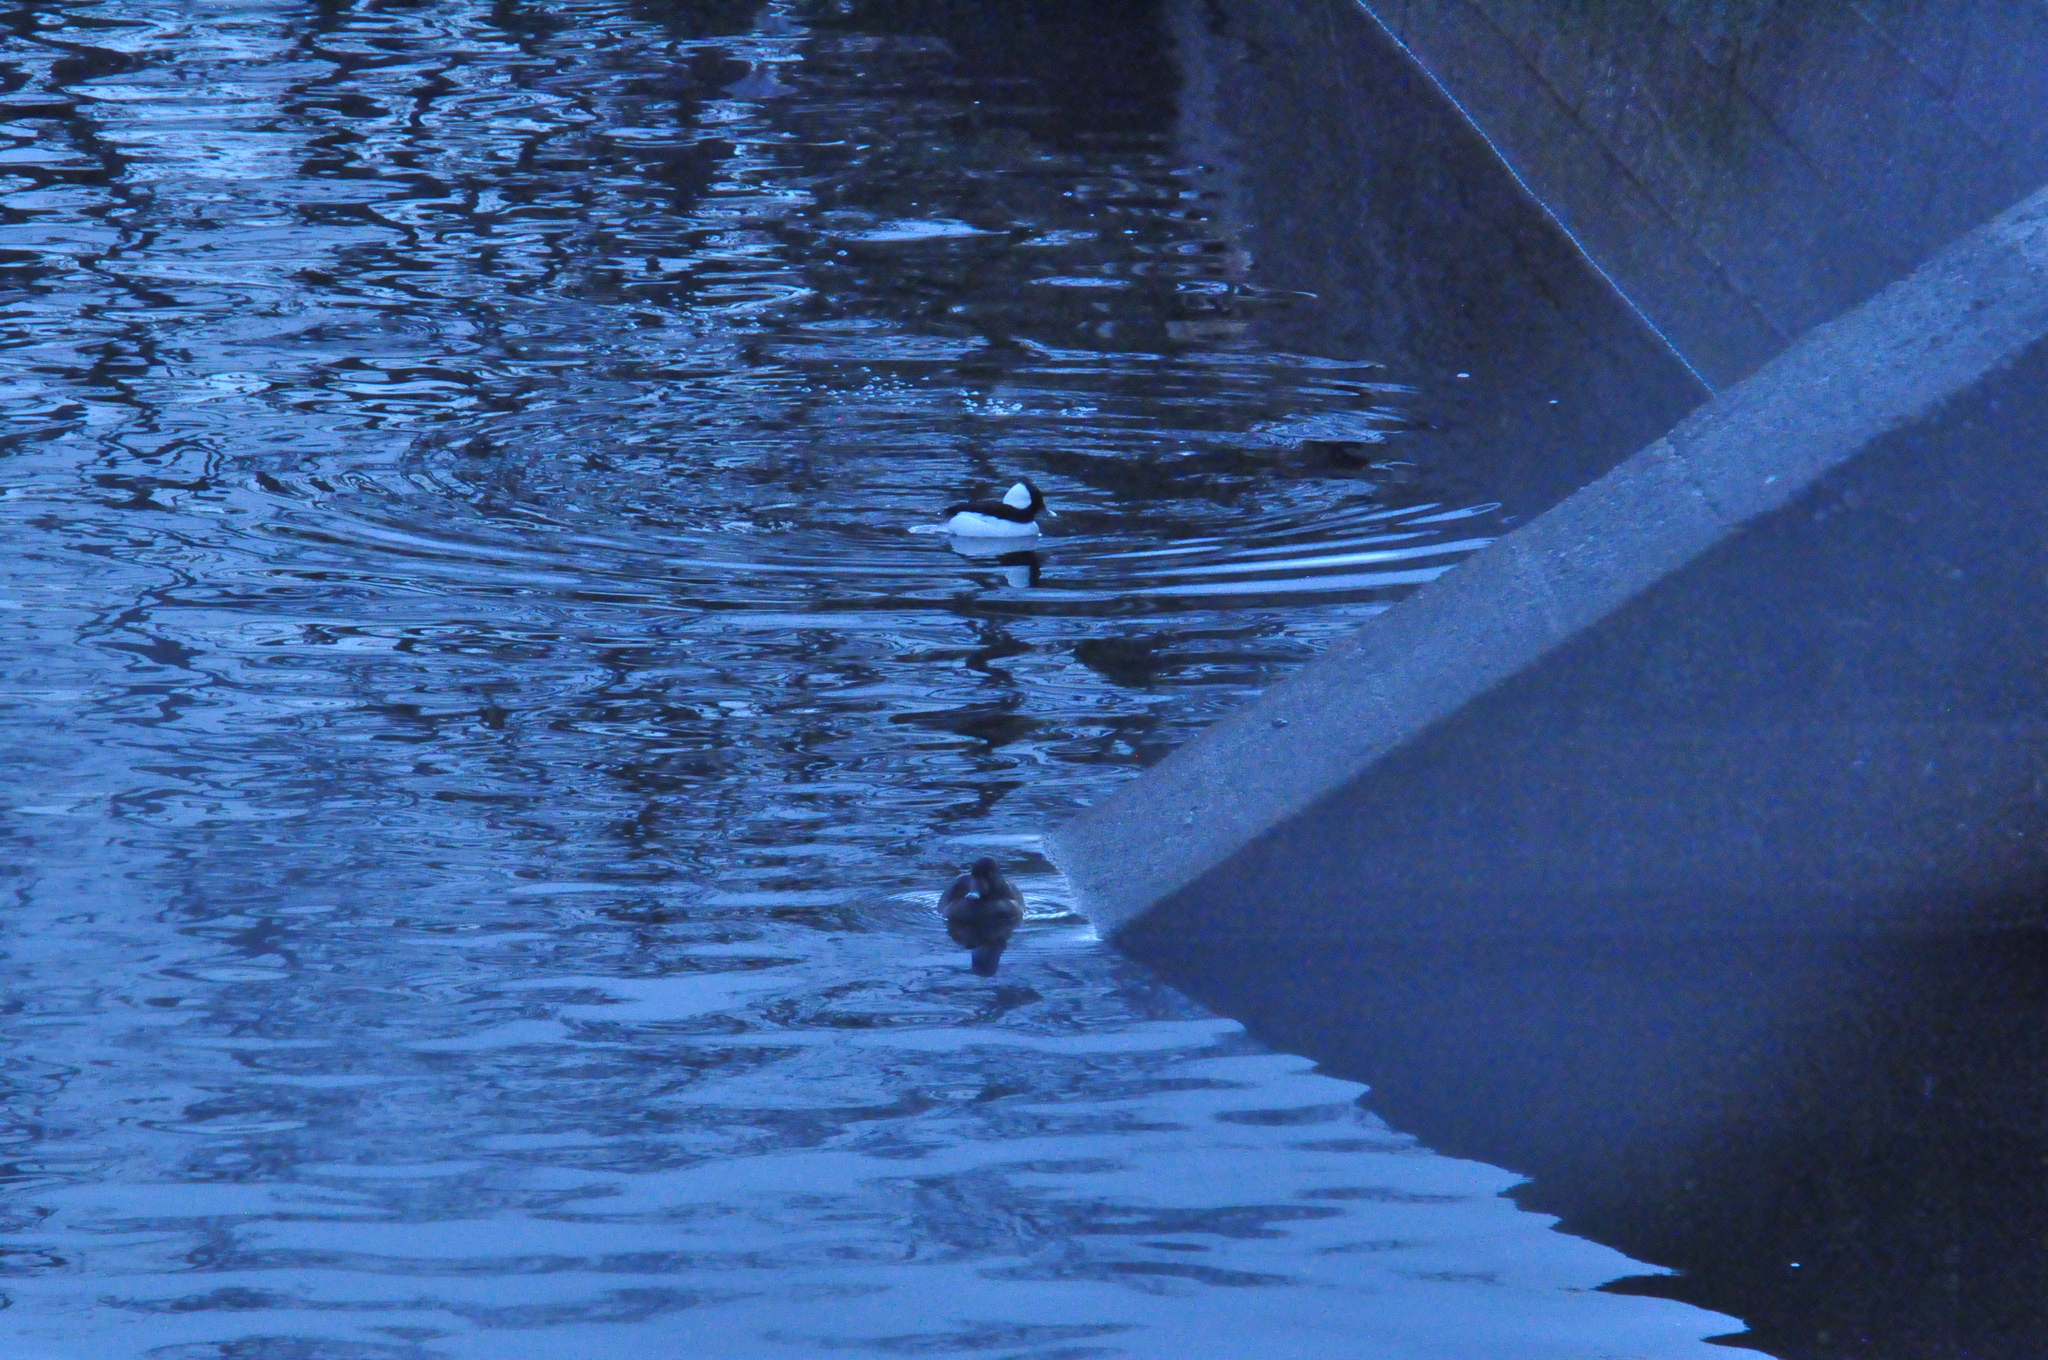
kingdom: Animalia
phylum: Chordata
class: Aves
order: Anseriformes
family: Anatidae
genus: Bucephala
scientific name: Bucephala albeola
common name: Bufflehead
